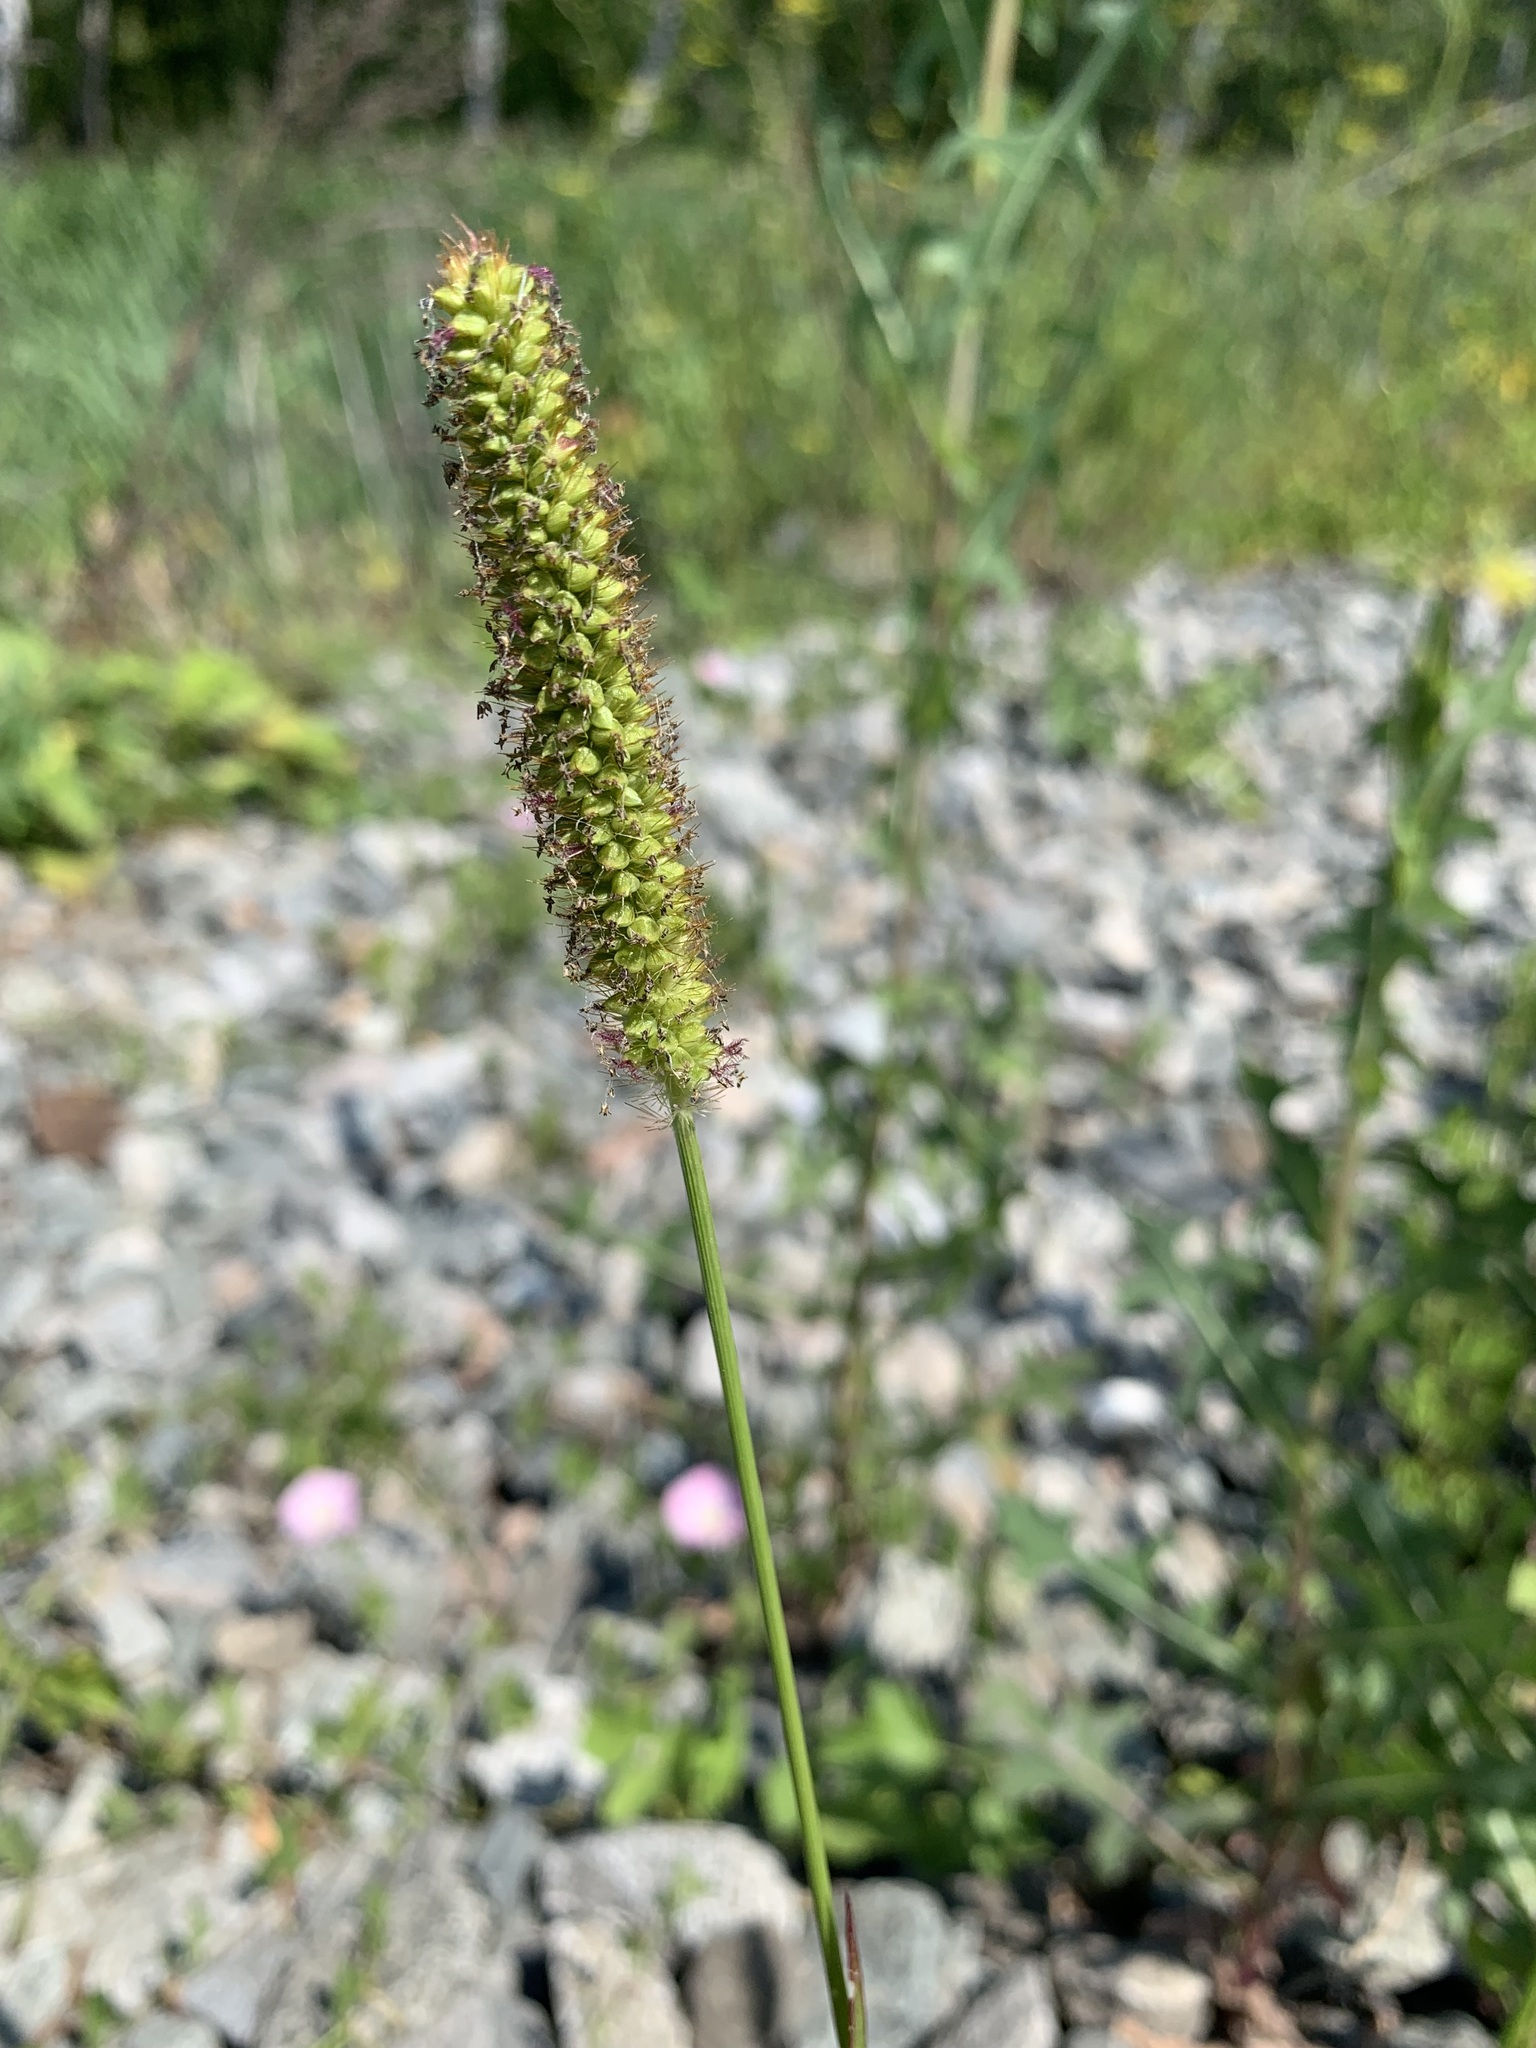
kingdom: Plantae
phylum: Tracheophyta
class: Liliopsida
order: Poales
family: Poaceae
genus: Setaria
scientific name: Setaria pumila
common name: Yellow bristle-grass
